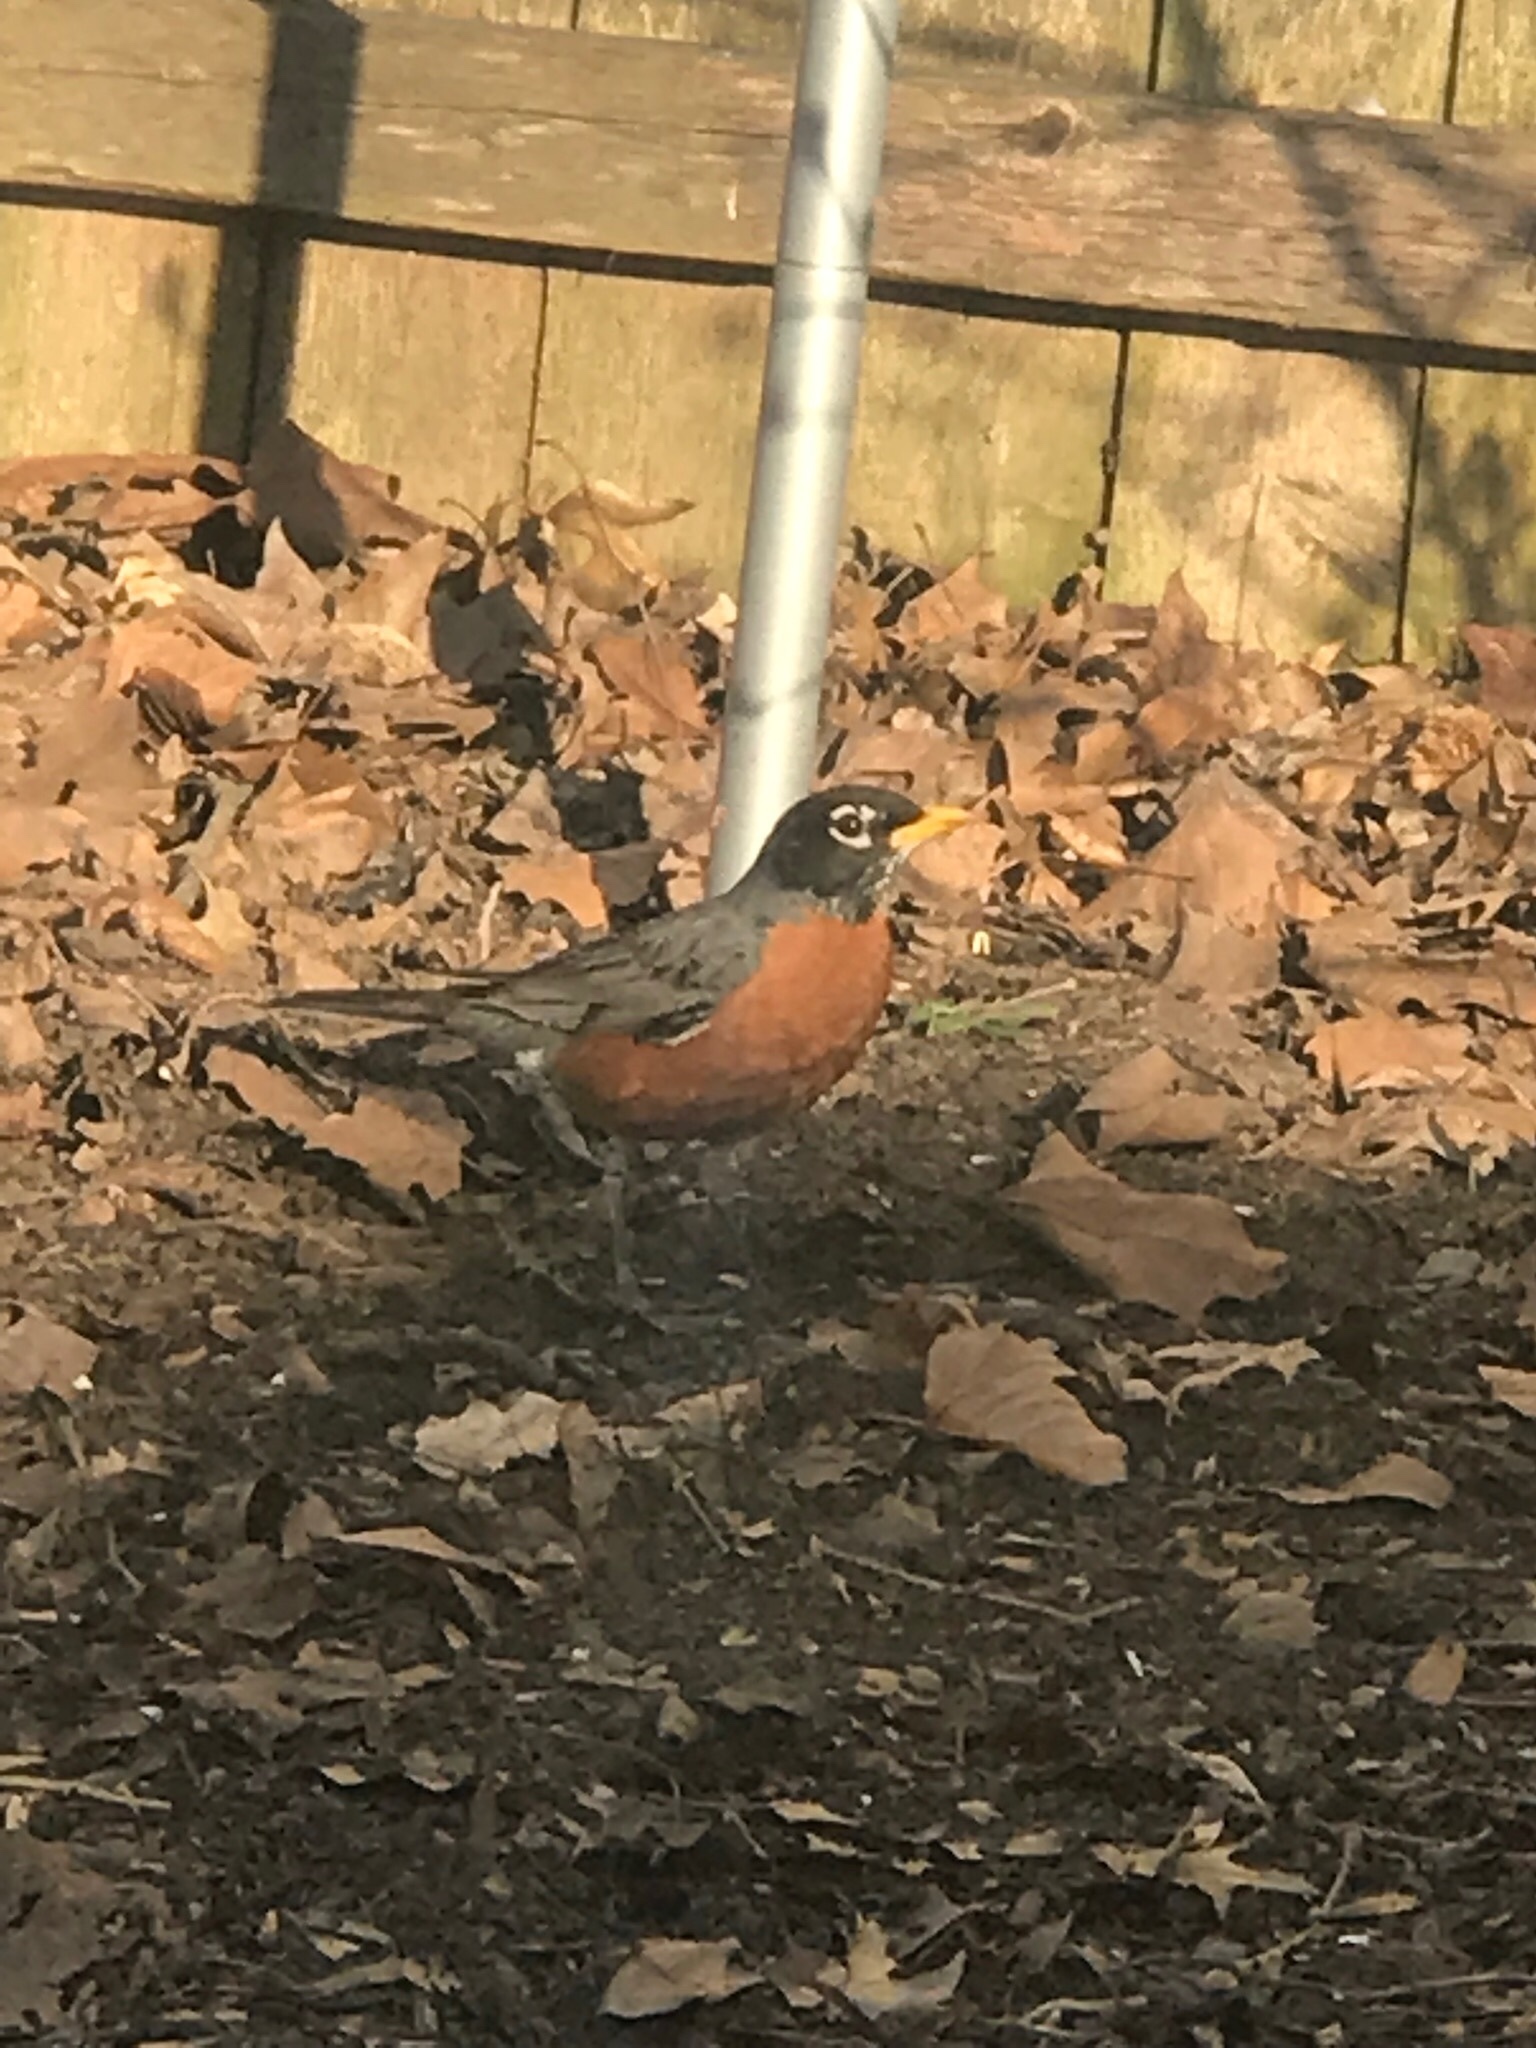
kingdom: Animalia
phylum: Chordata
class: Aves
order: Passeriformes
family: Turdidae
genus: Turdus
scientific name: Turdus migratorius
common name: American robin
